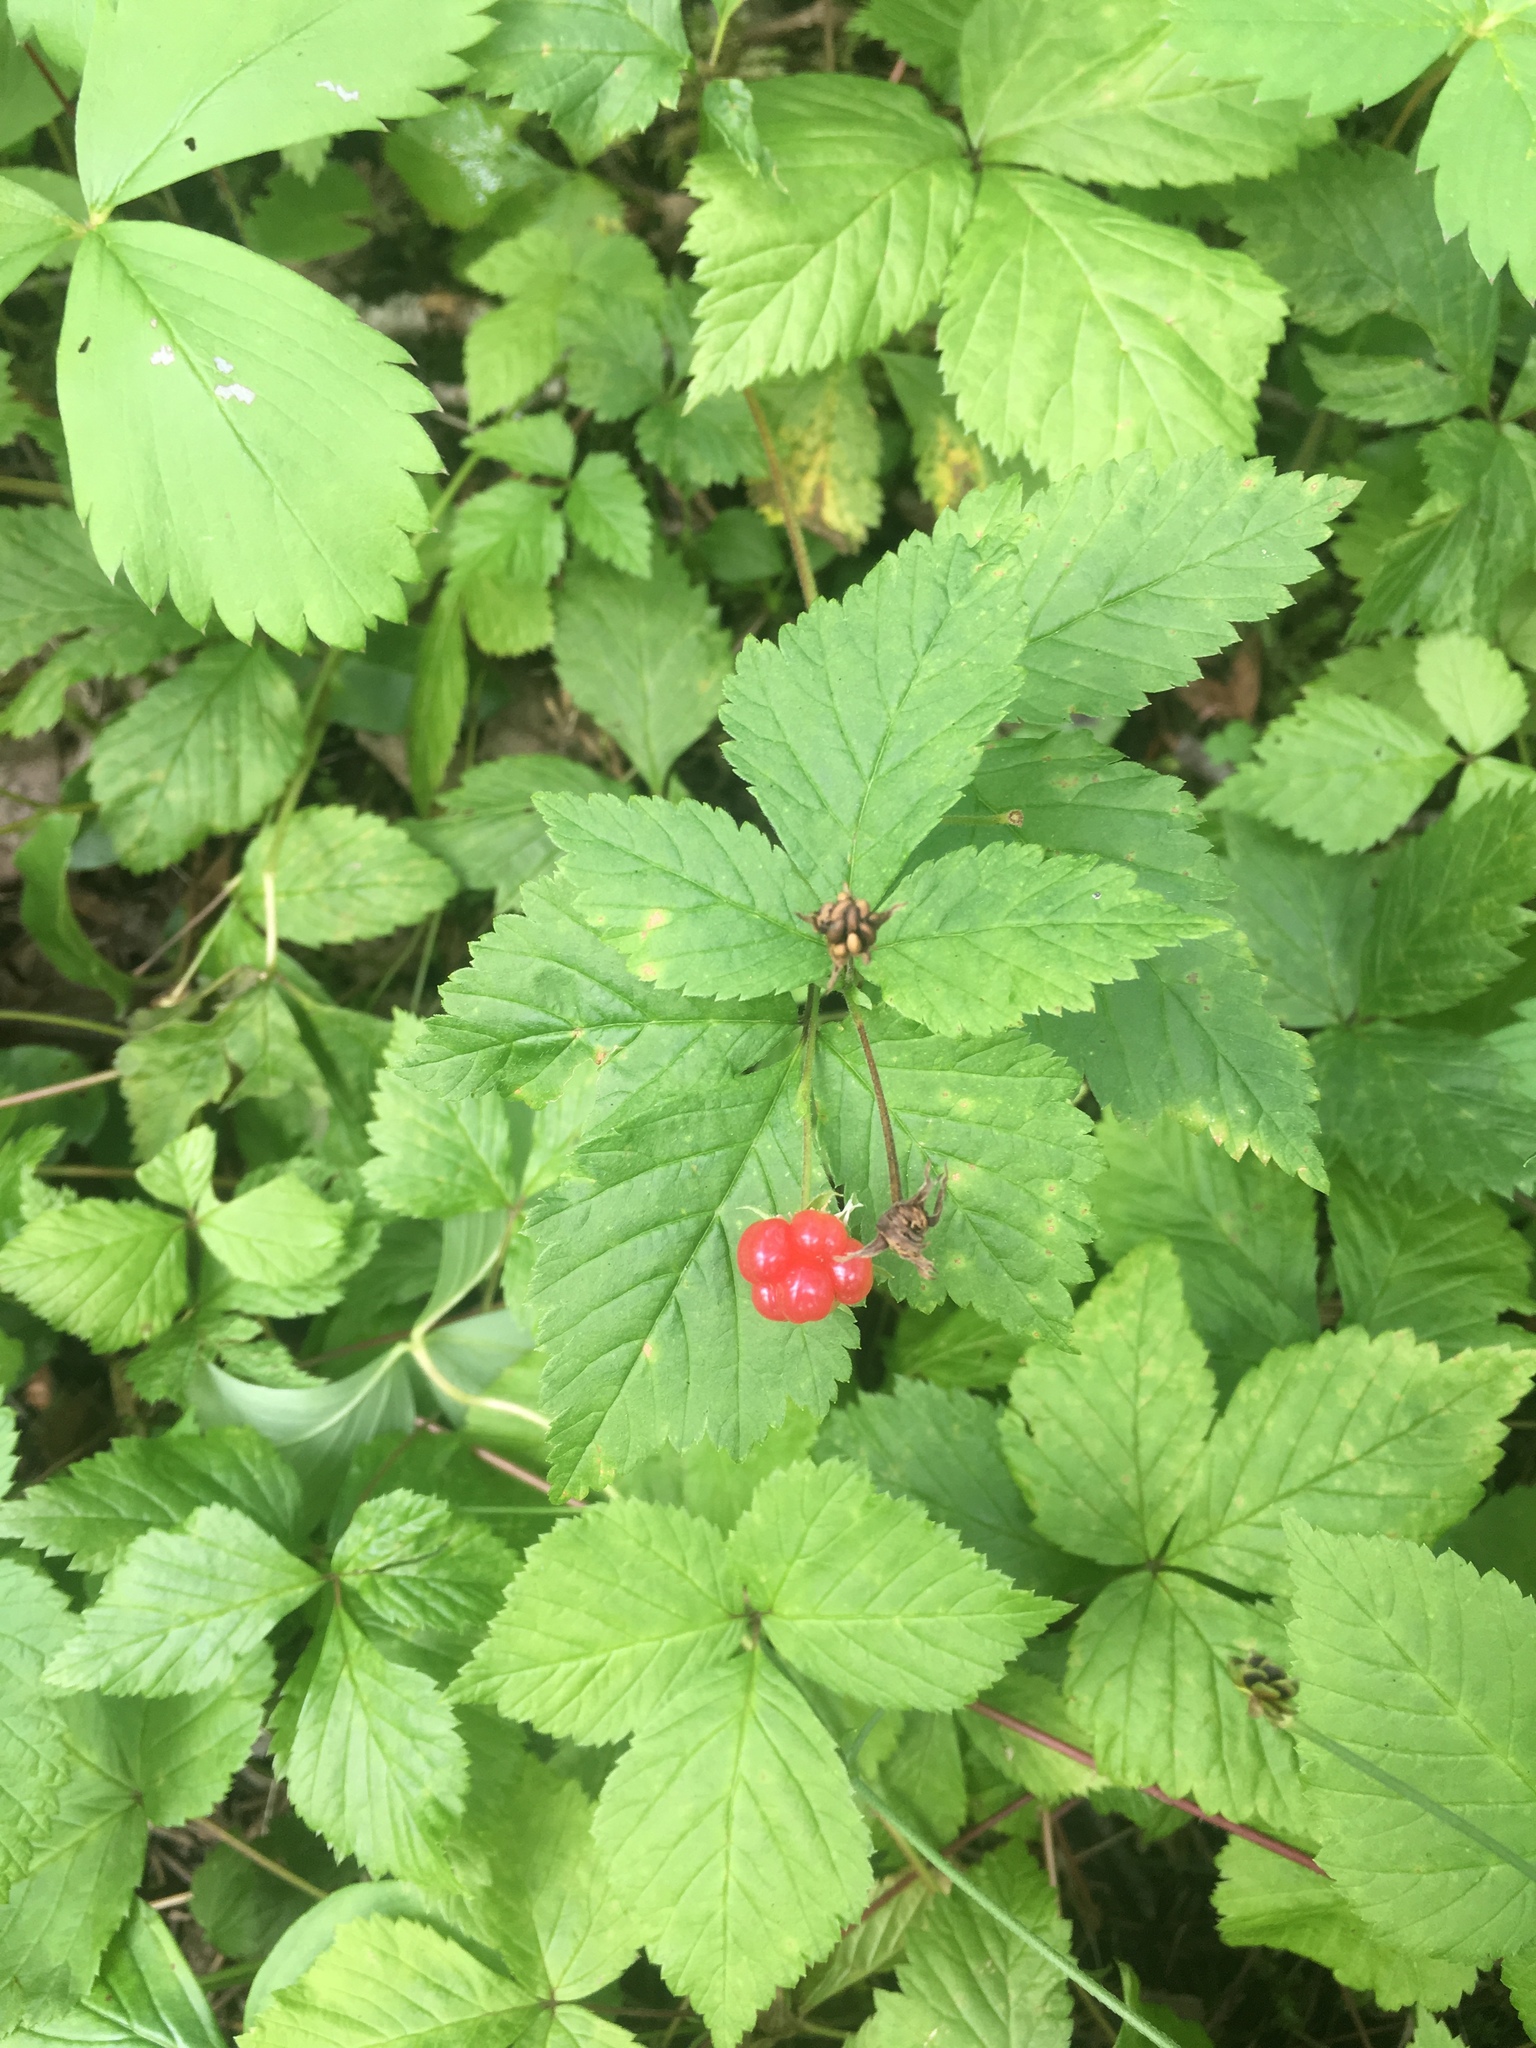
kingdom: Plantae
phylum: Tracheophyta
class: Magnoliopsida
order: Rosales
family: Rosaceae
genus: Rubus
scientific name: Rubus pubescens
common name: Dwarf raspberry
